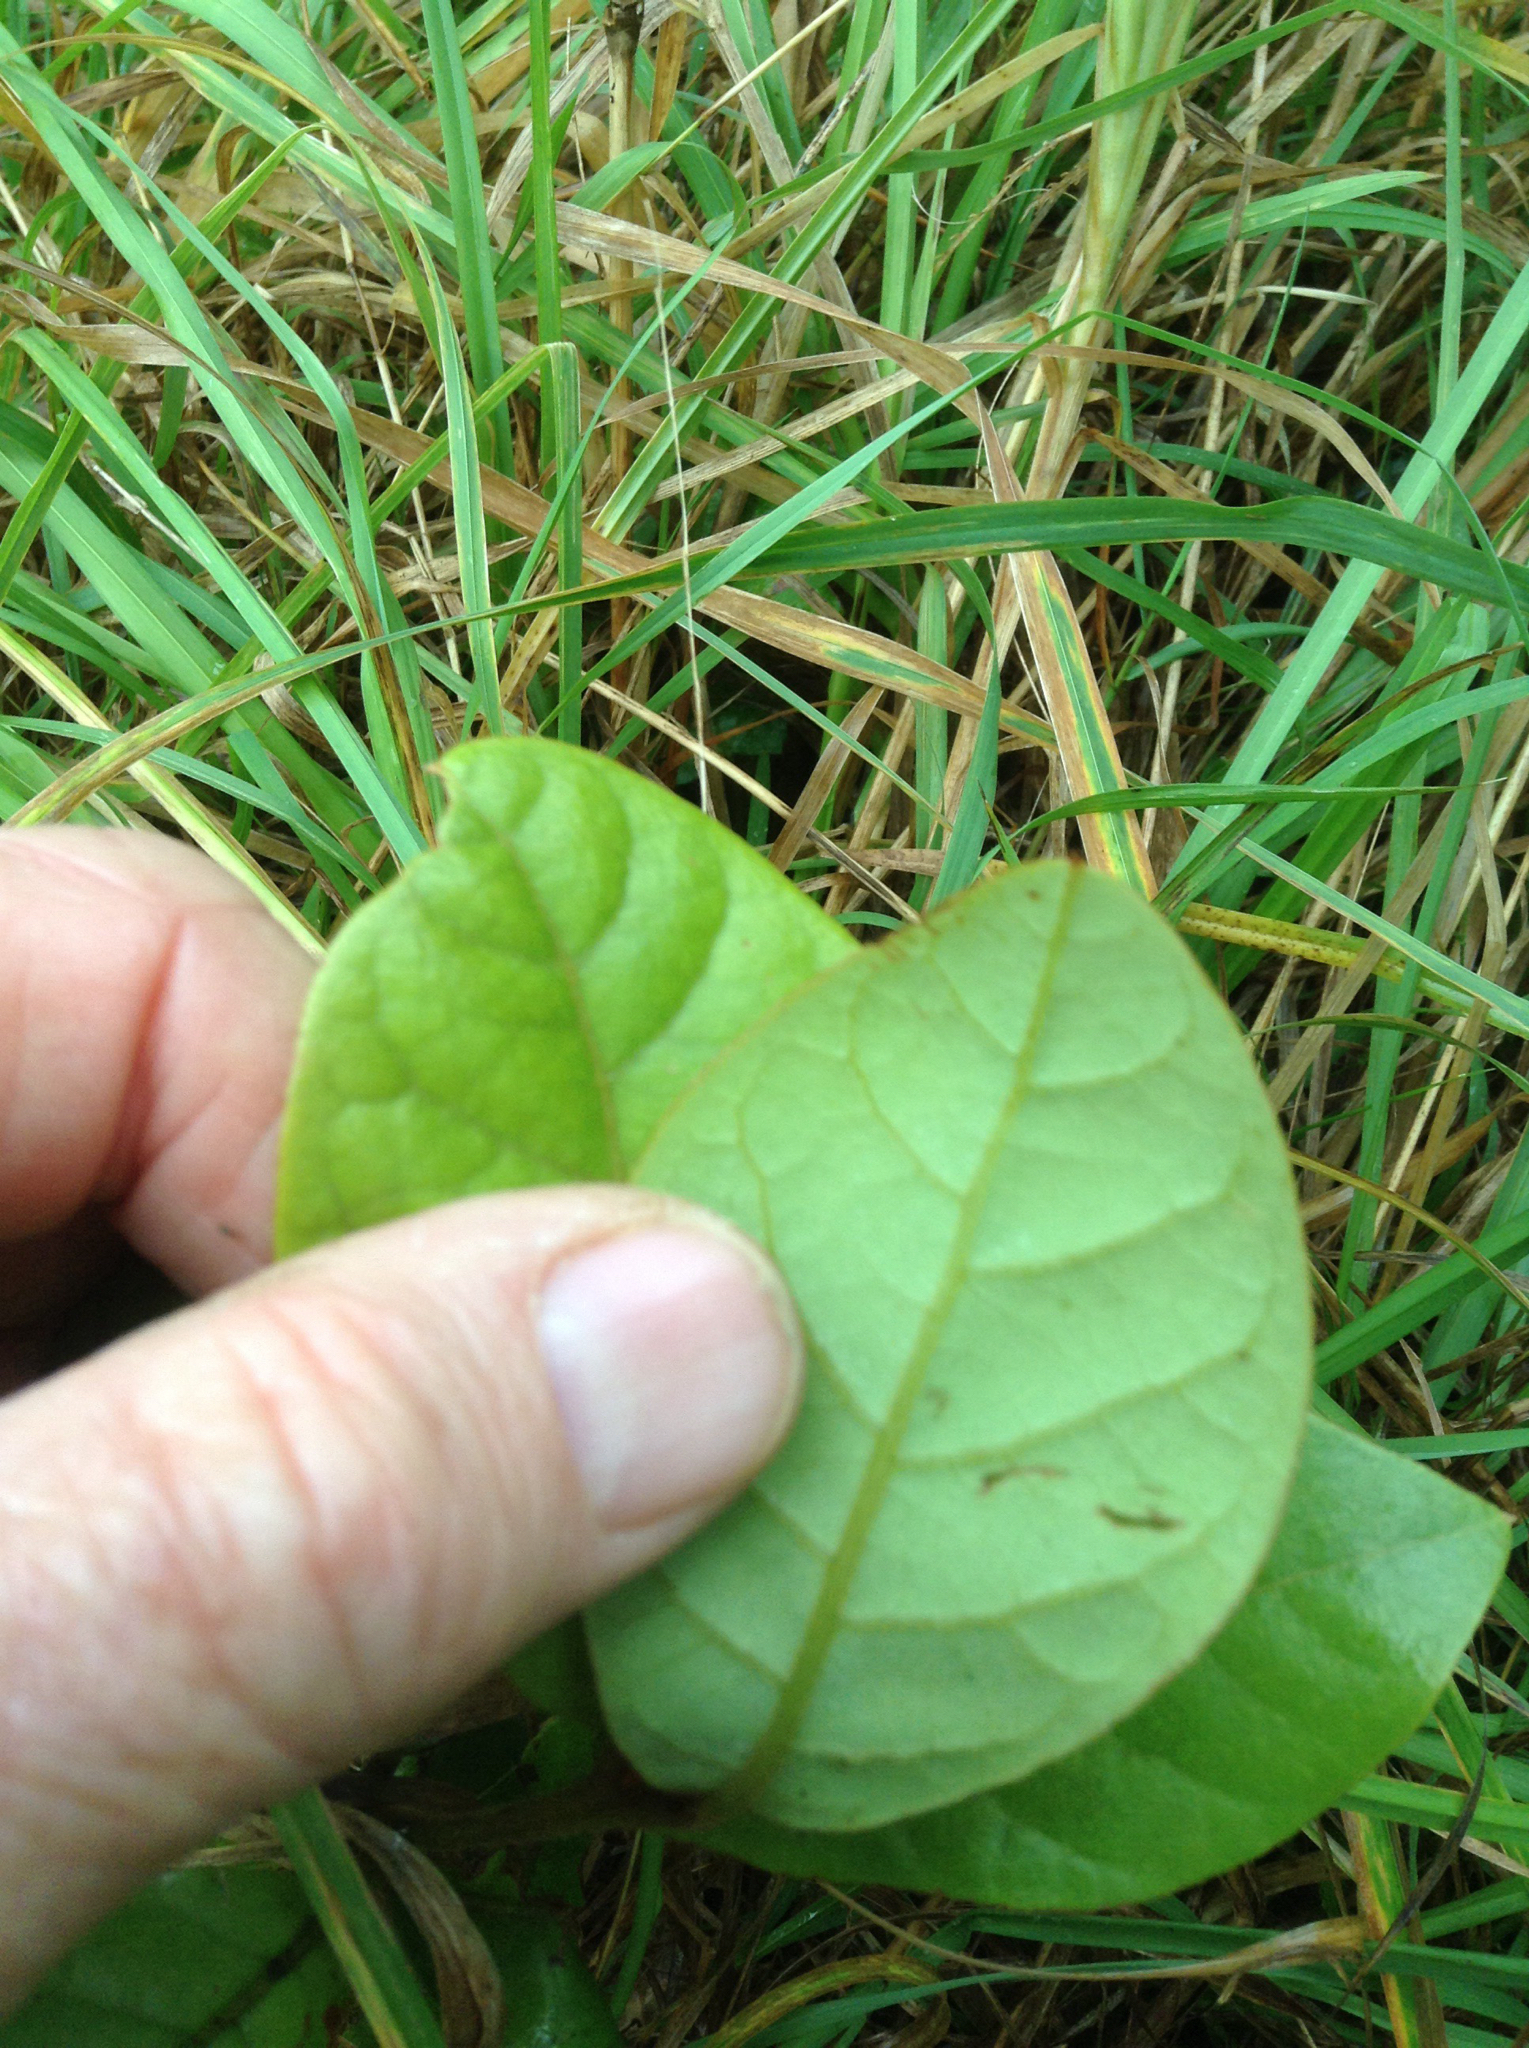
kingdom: Plantae
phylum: Tracheophyta
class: Magnoliopsida
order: Laurales
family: Lauraceae
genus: Beilschmiedia
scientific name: Beilschmiedia tarairi
